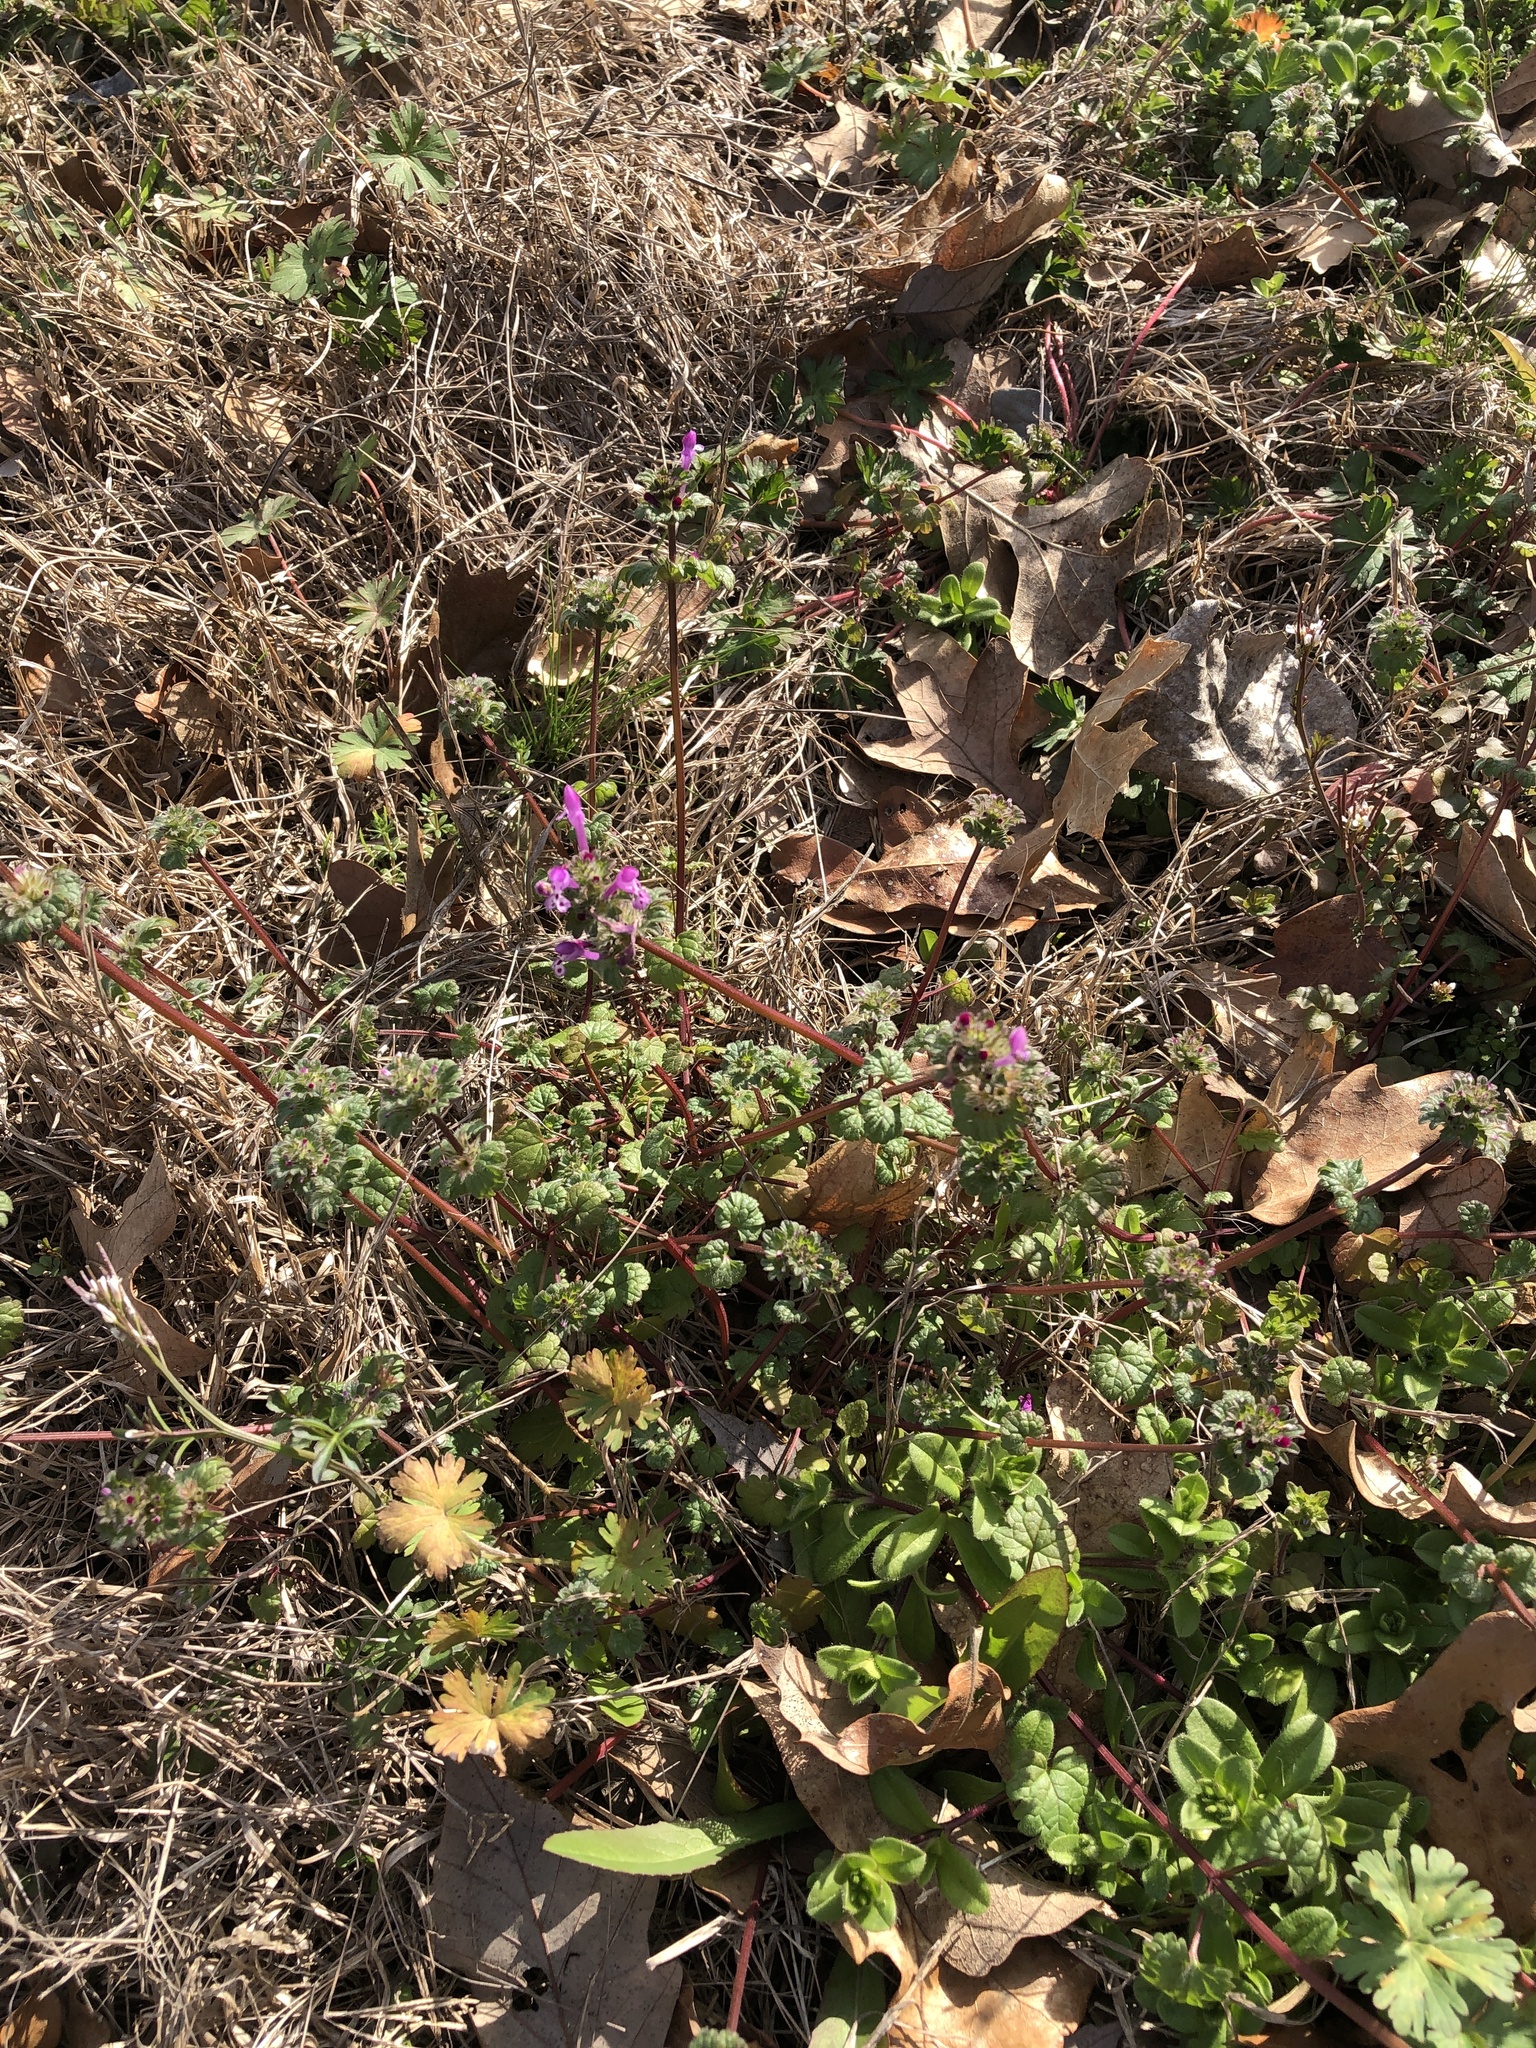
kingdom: Plantae
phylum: Tracheophyta
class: Magnoliopsida
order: Lamiales
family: Lamiaceae
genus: Lamium
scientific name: Lamium amplexicaule
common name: Henbit dead-nettle
